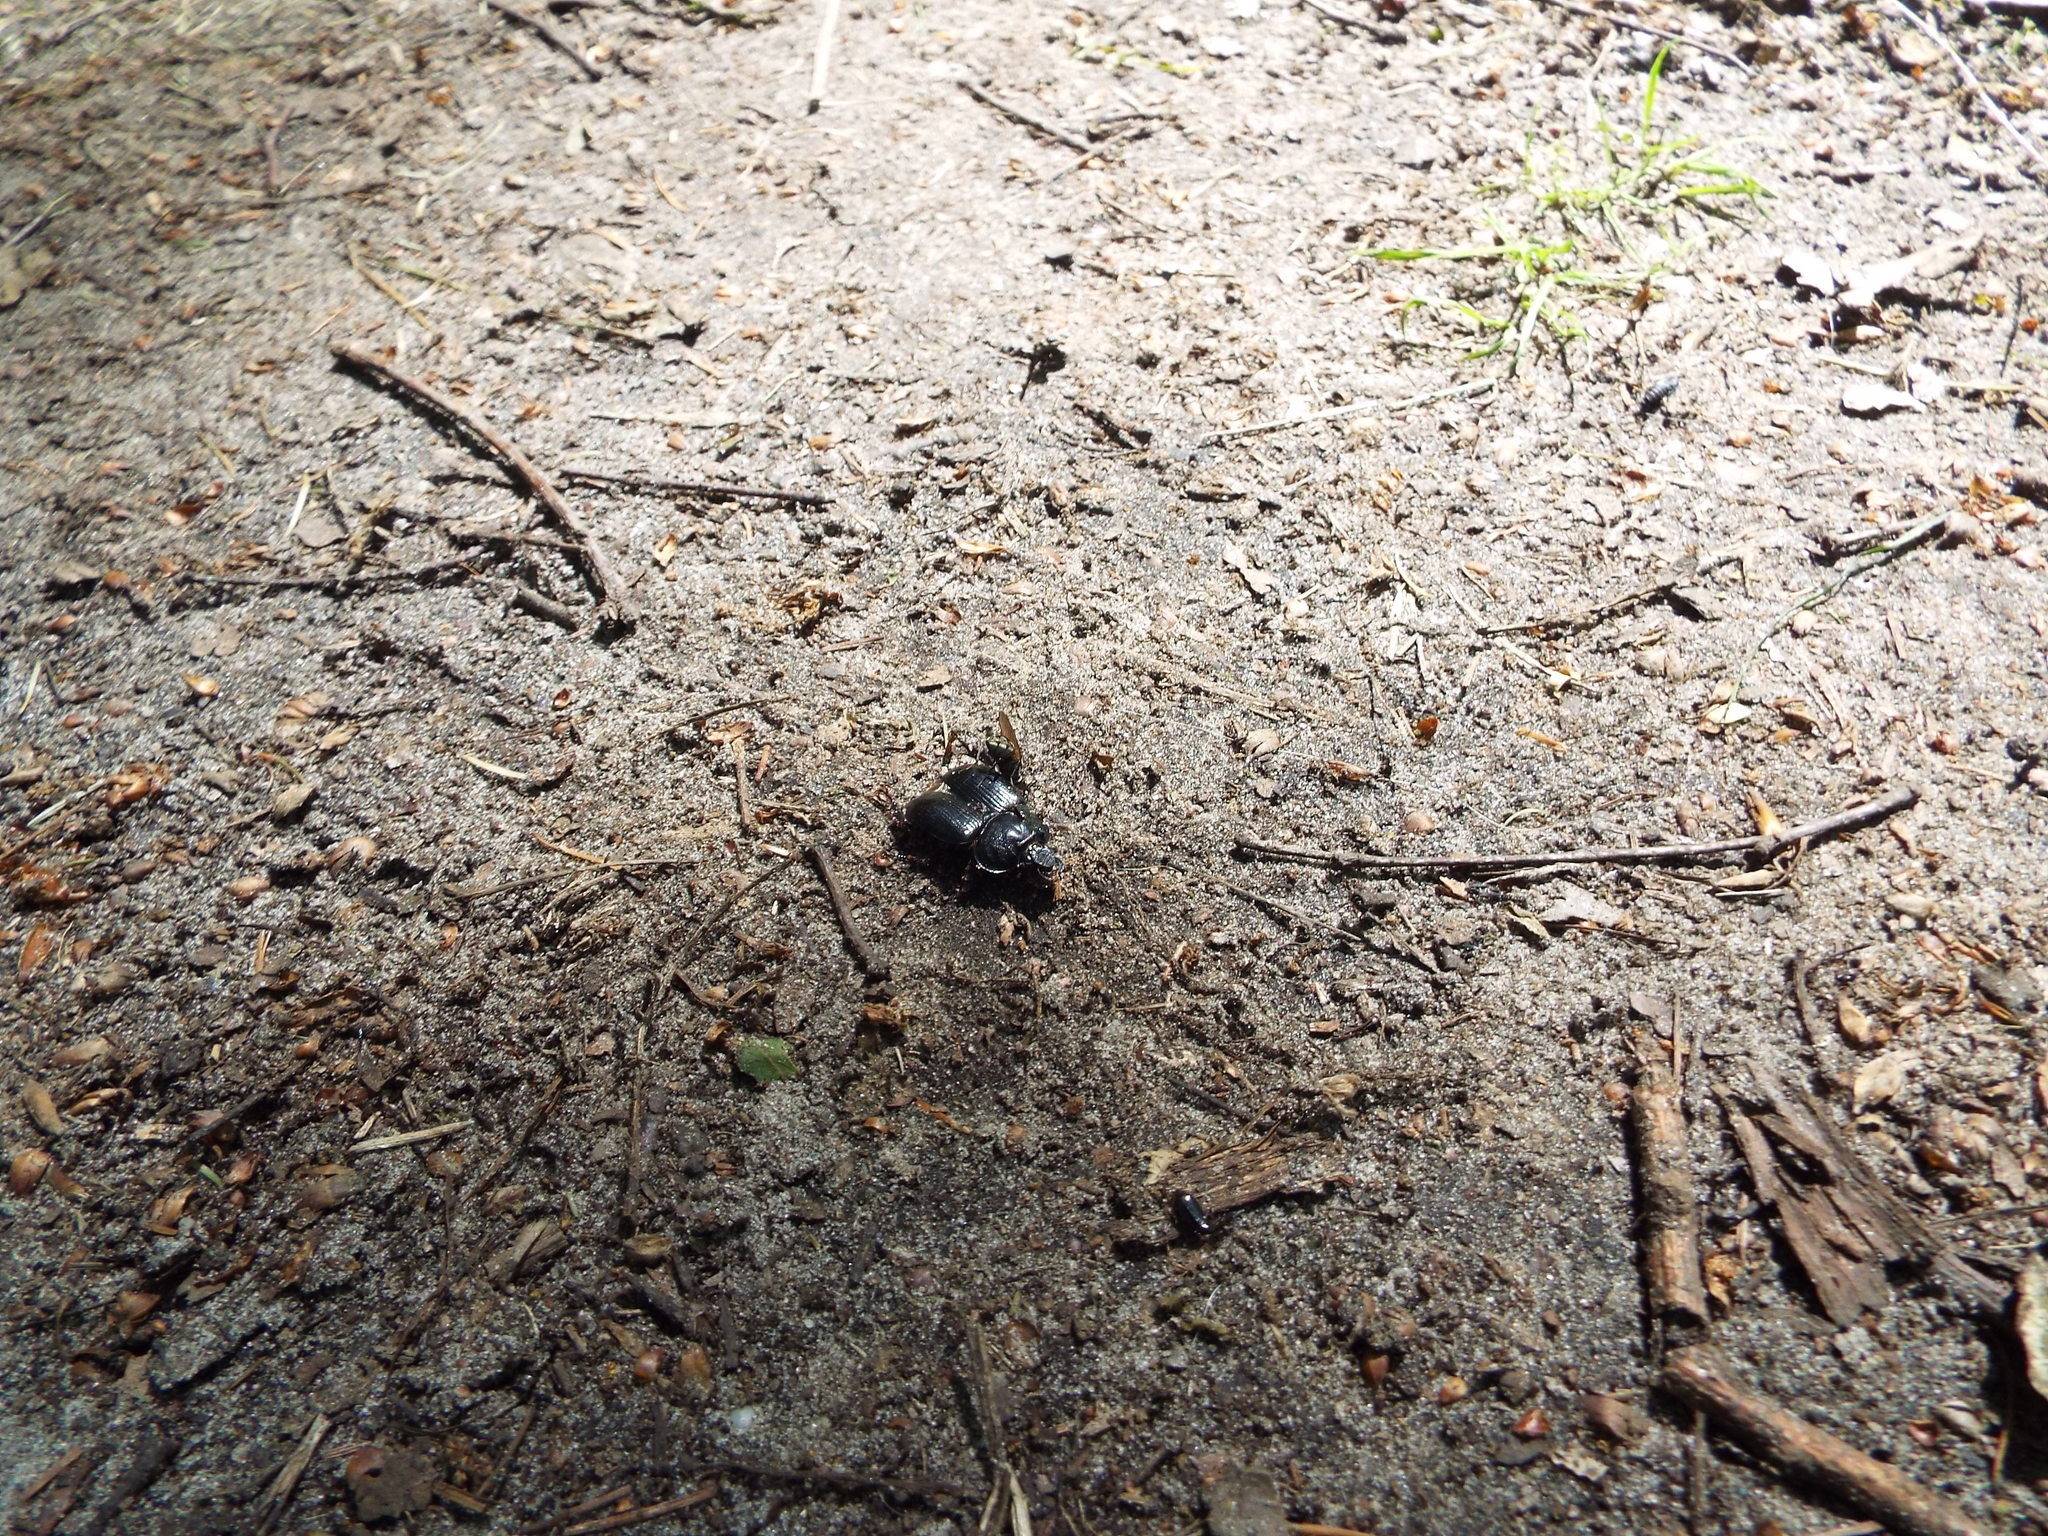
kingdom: Animalia
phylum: Arthropoda
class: Insecta
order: Coleoptera
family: Geotrupidae
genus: Typhaeus
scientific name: Typhaeus typhoeus
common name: Minotaur beetle
